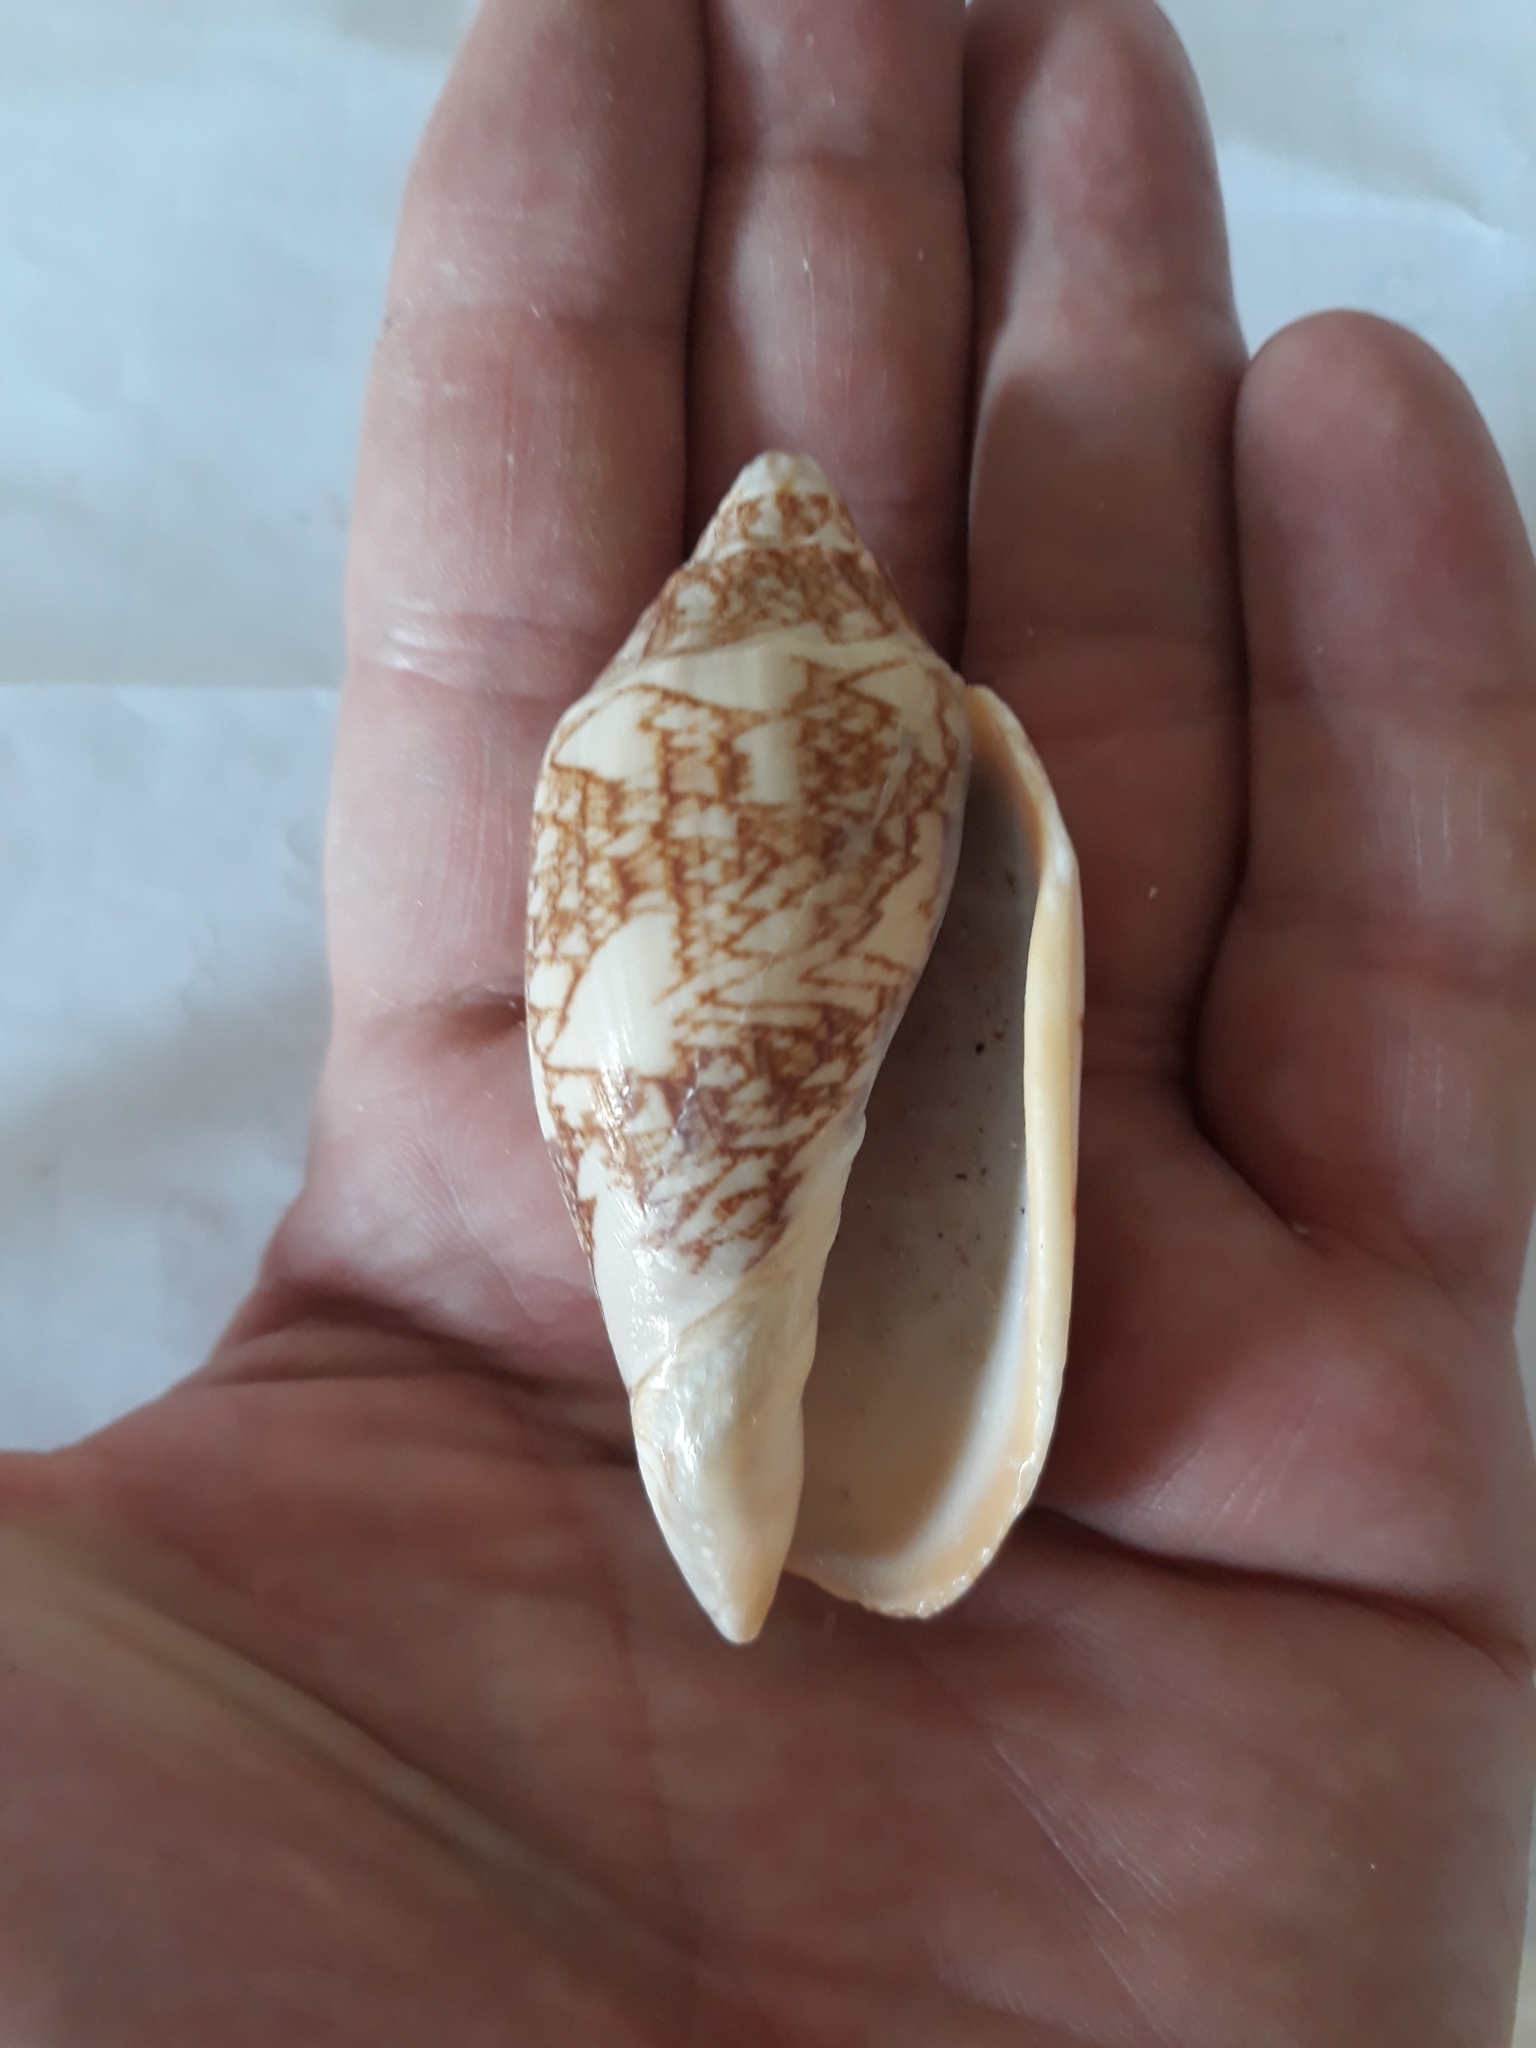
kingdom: Animalia
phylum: Mollusca
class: Gastropoda
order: Neogastropoda
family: Volutidae
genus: Cymbiola
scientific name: Cymbiola vespertilio
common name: Bat volute
